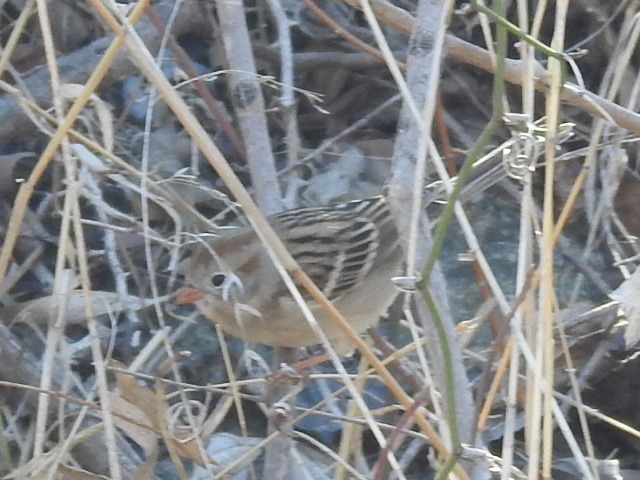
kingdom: Animalia
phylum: Chordata
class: Aves
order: Passeriformes
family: Passerellidae
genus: Spizella
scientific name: Spizella pusilla
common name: Field sparrow
